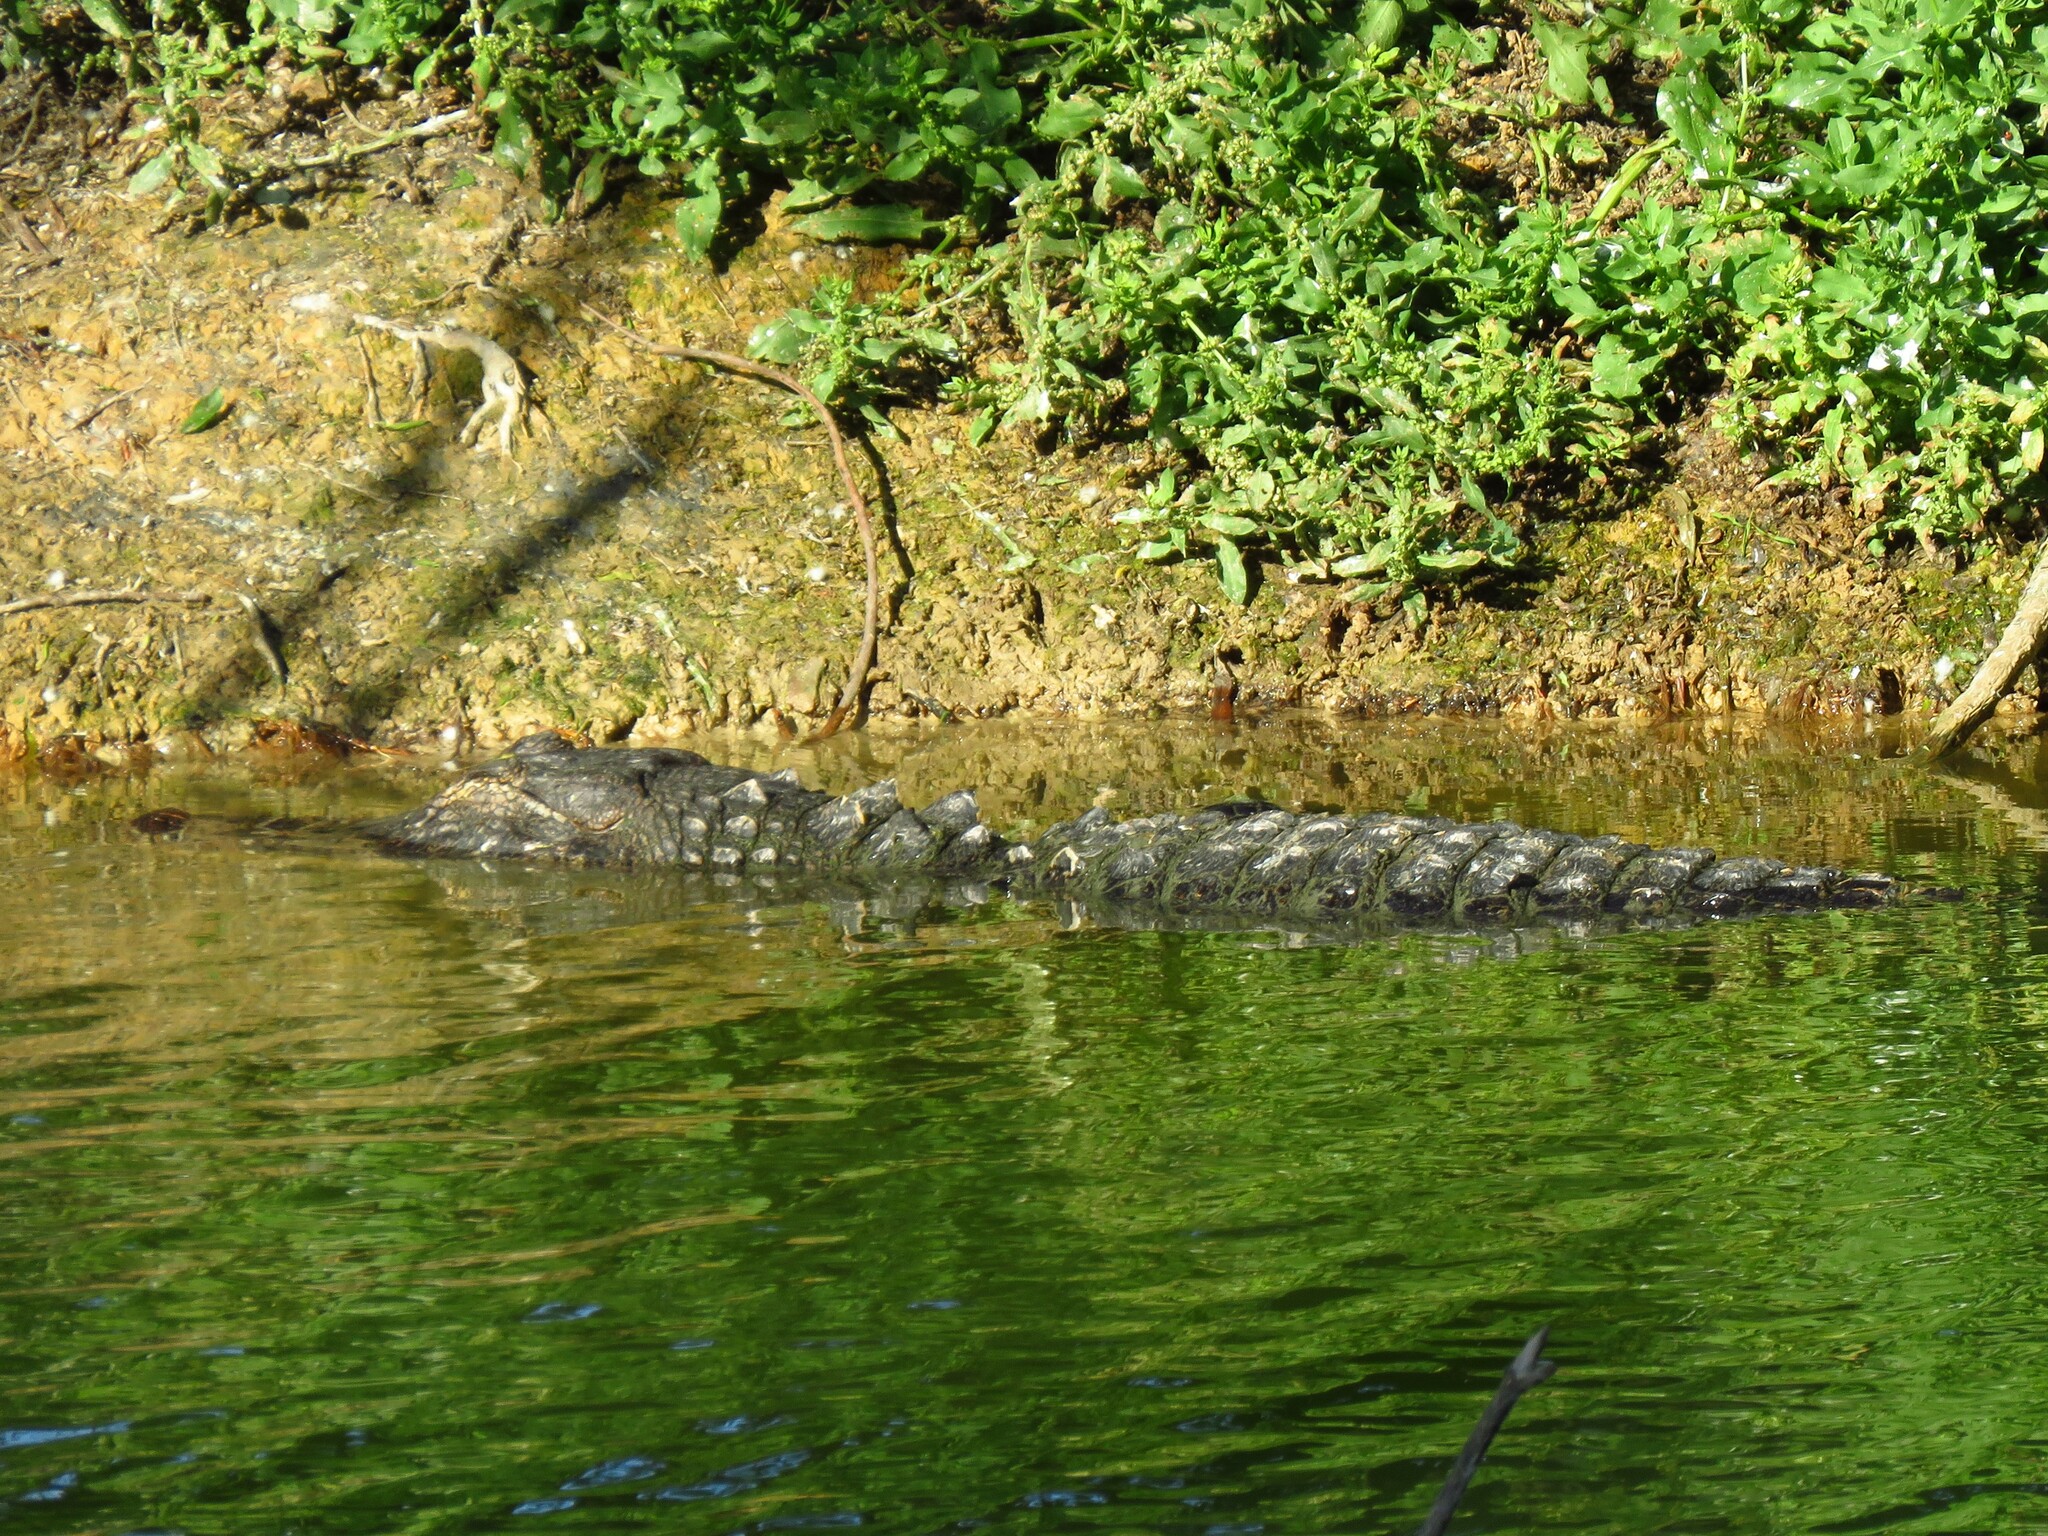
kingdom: Animalia
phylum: Chordata
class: Crocodylia
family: Alligatoridae
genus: Alligator
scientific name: Alligator mississippiensis
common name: American alligator
